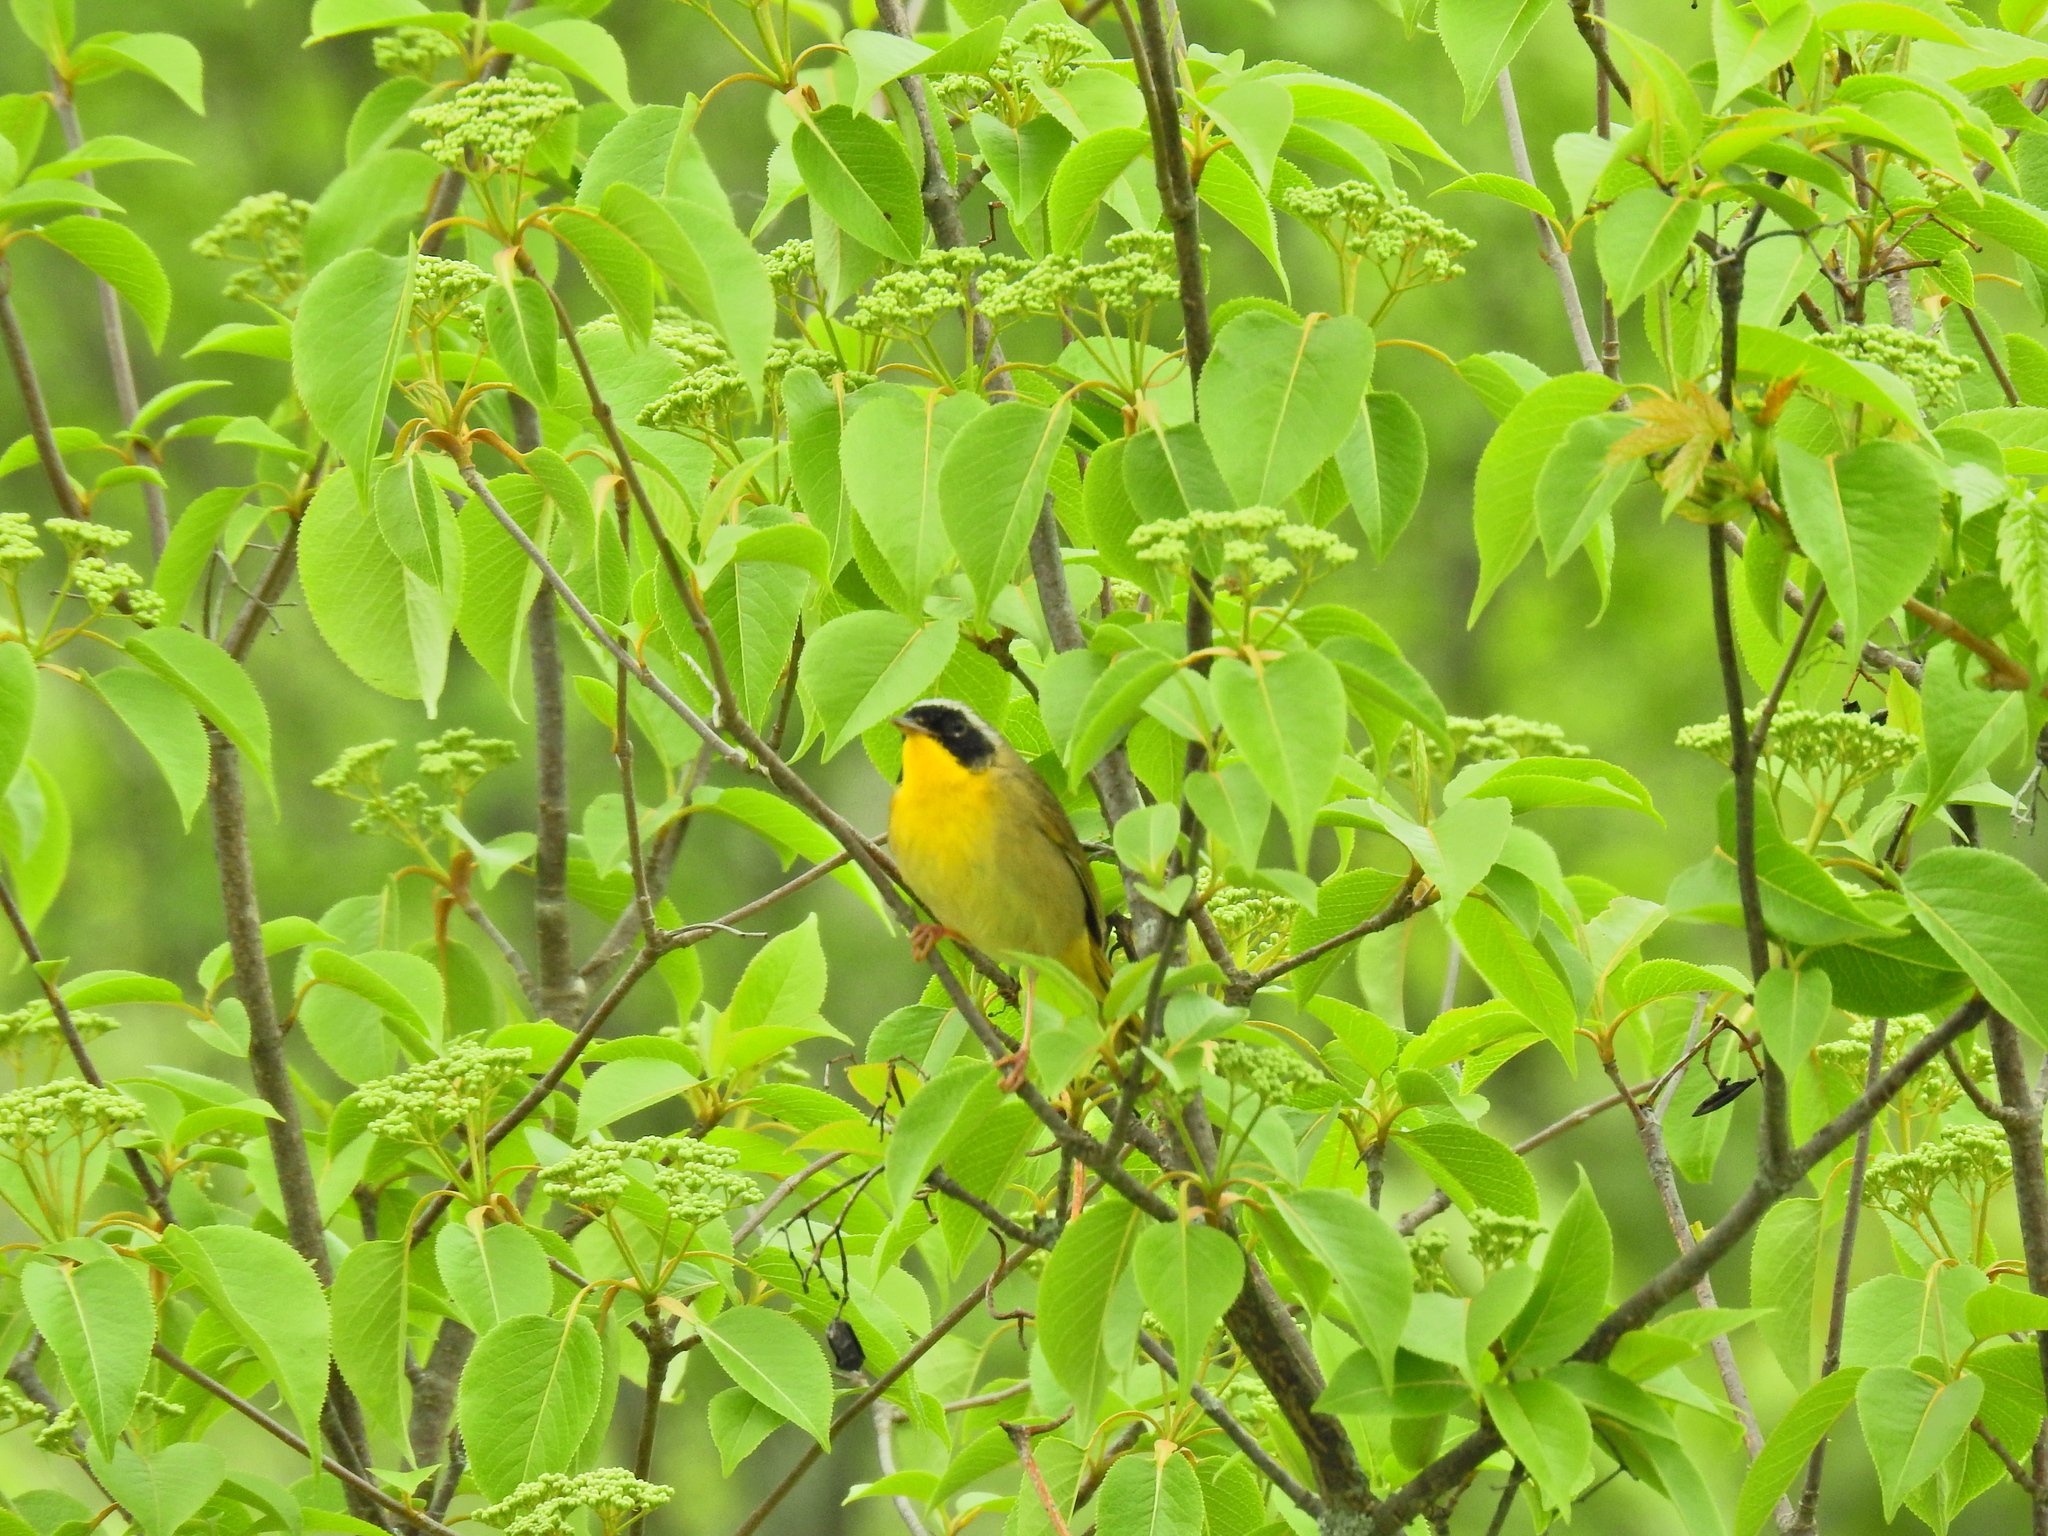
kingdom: Animalia
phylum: Chordata
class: Aves
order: Passeriformes
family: Parulidae
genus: Geothlypis
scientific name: Geothlypis trichas
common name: Common yellowthroat
